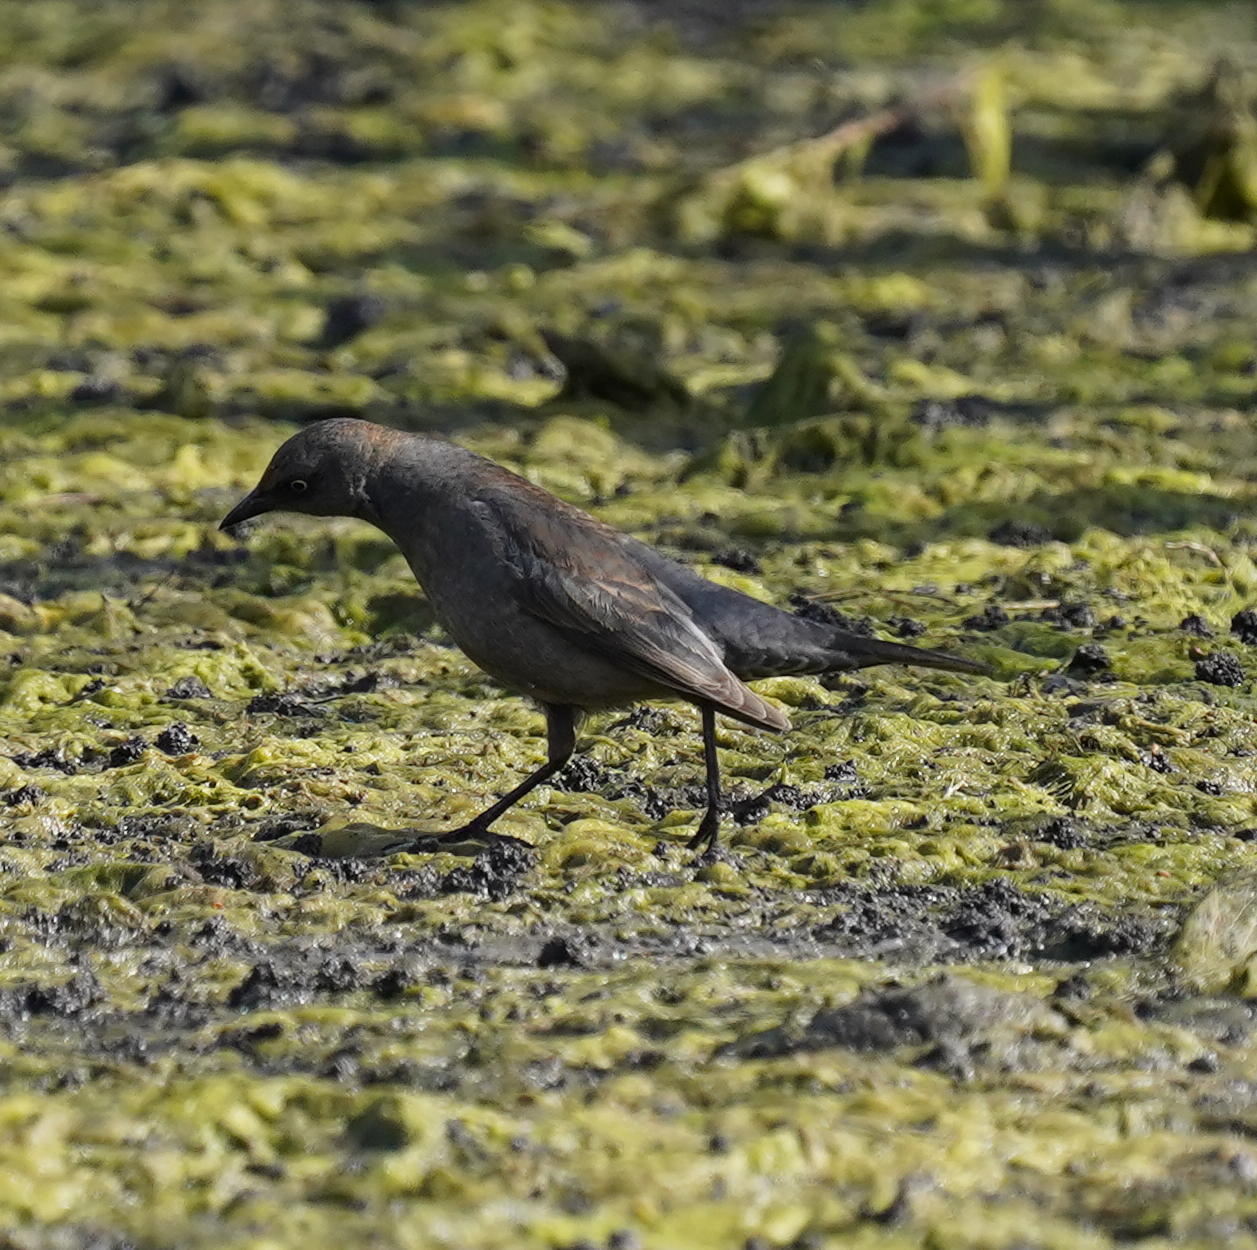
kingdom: Animalia
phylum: Chordata
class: Aves
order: Passeriformes
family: Icteridae
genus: Euphagus
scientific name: Euphagus carolinus
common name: Rusty blackbird
